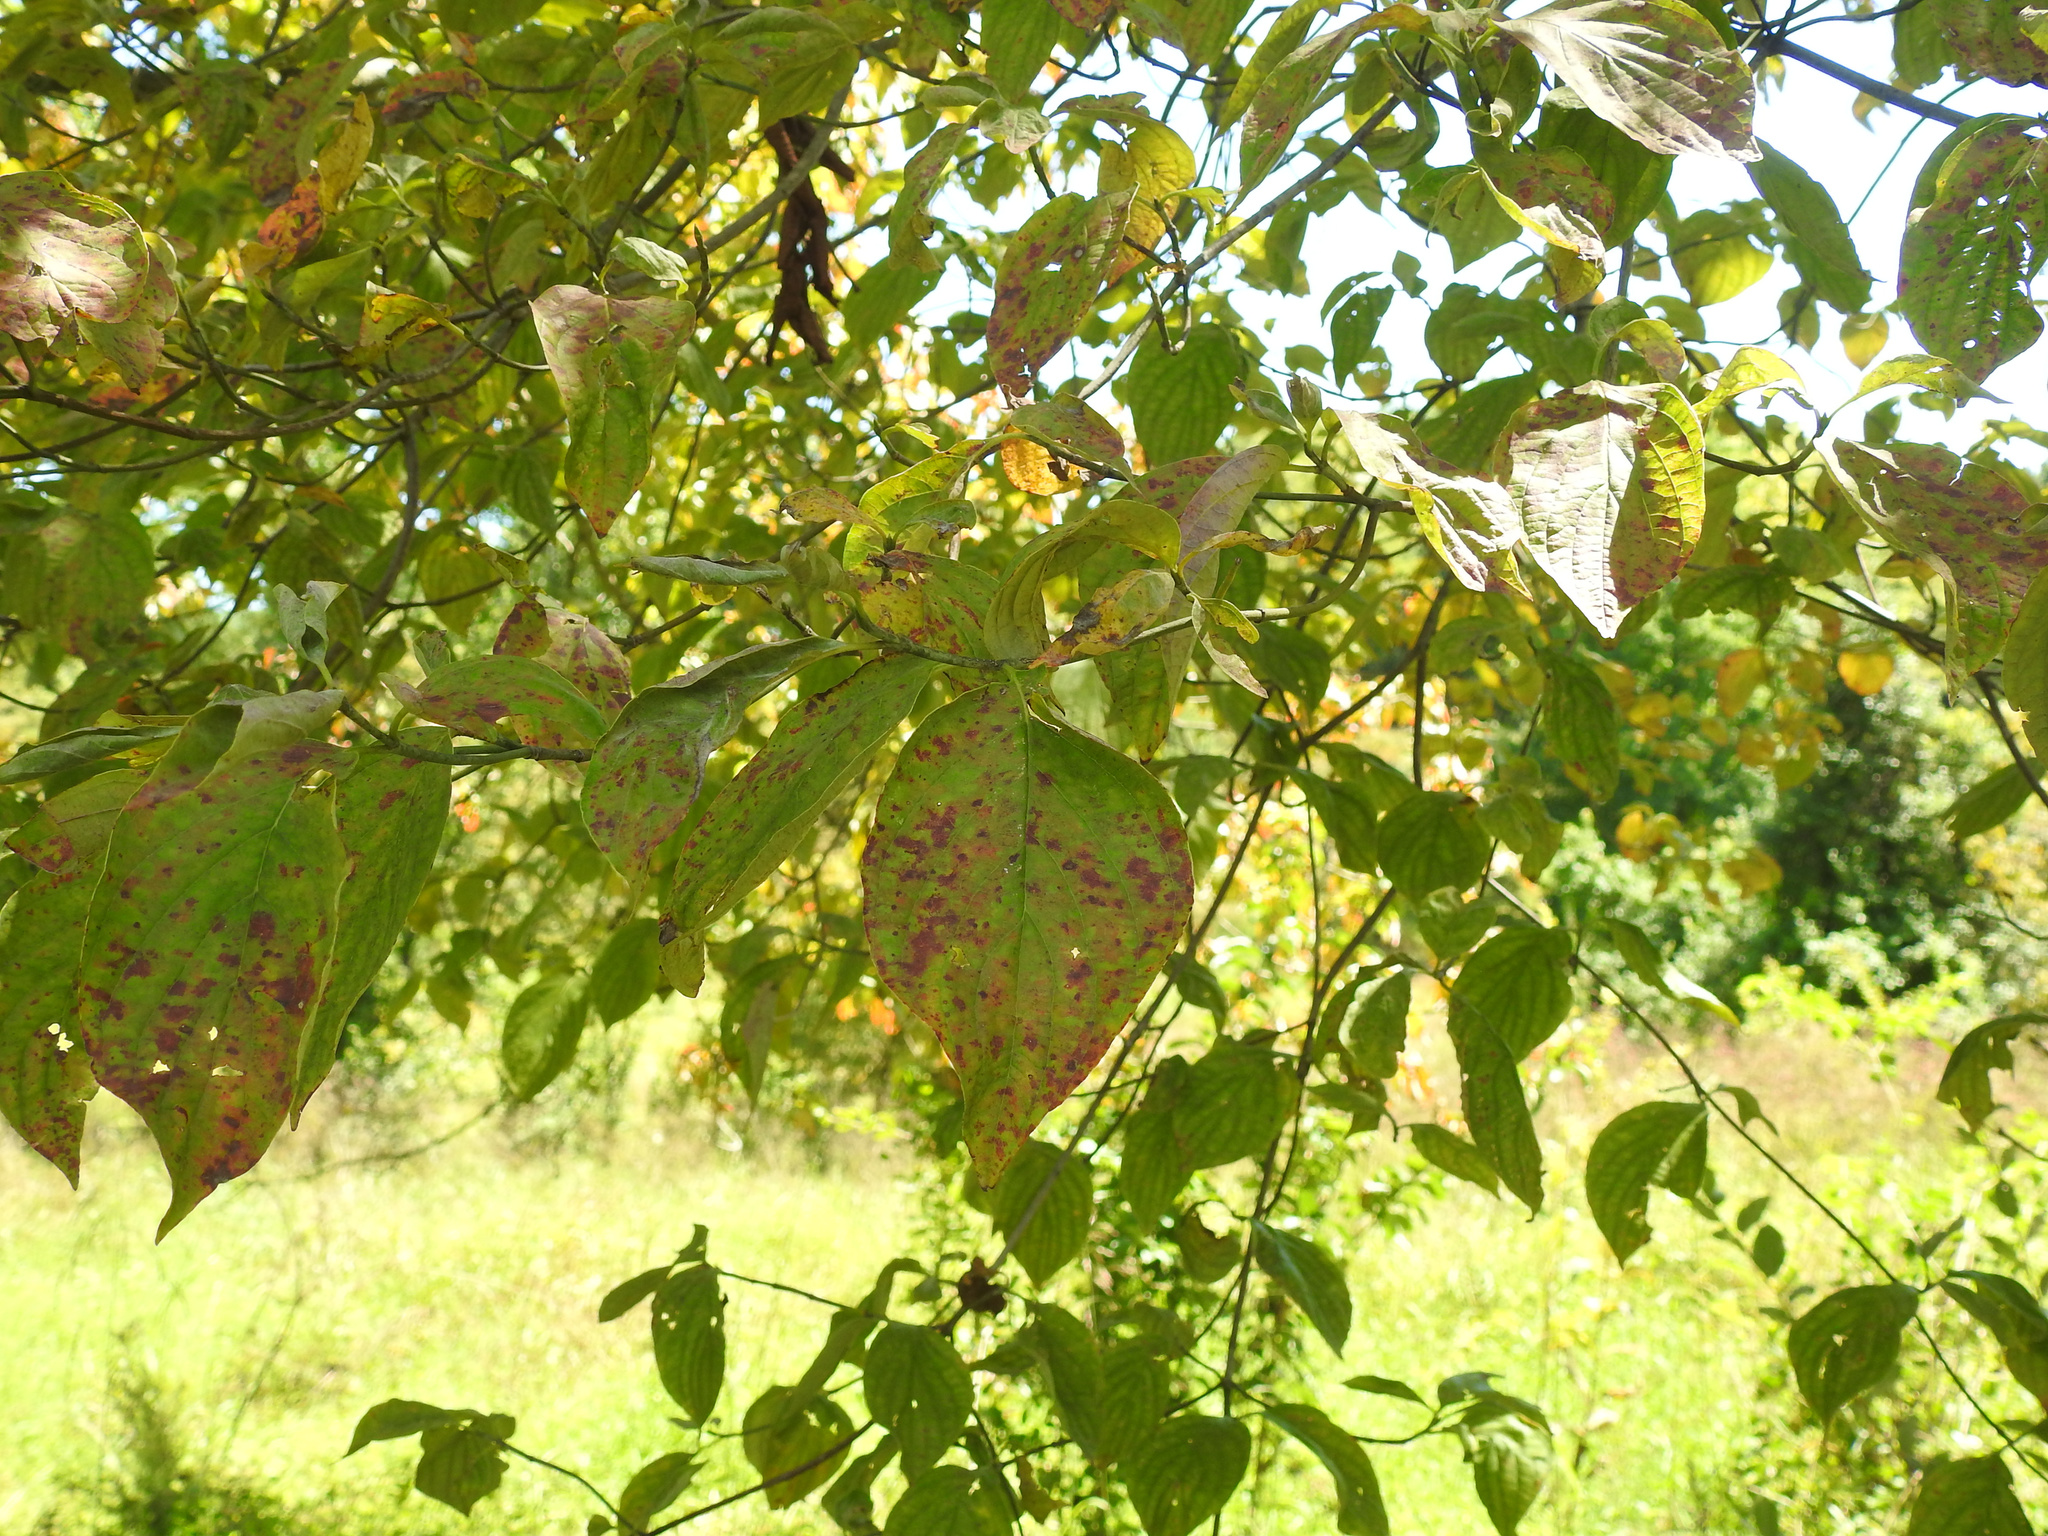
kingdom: Plantae
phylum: Tracheophyta
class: Magnoliopsida
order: Cornales
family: Cornaceae
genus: Cornus
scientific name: Cornus florida
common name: Flowering dogwood
